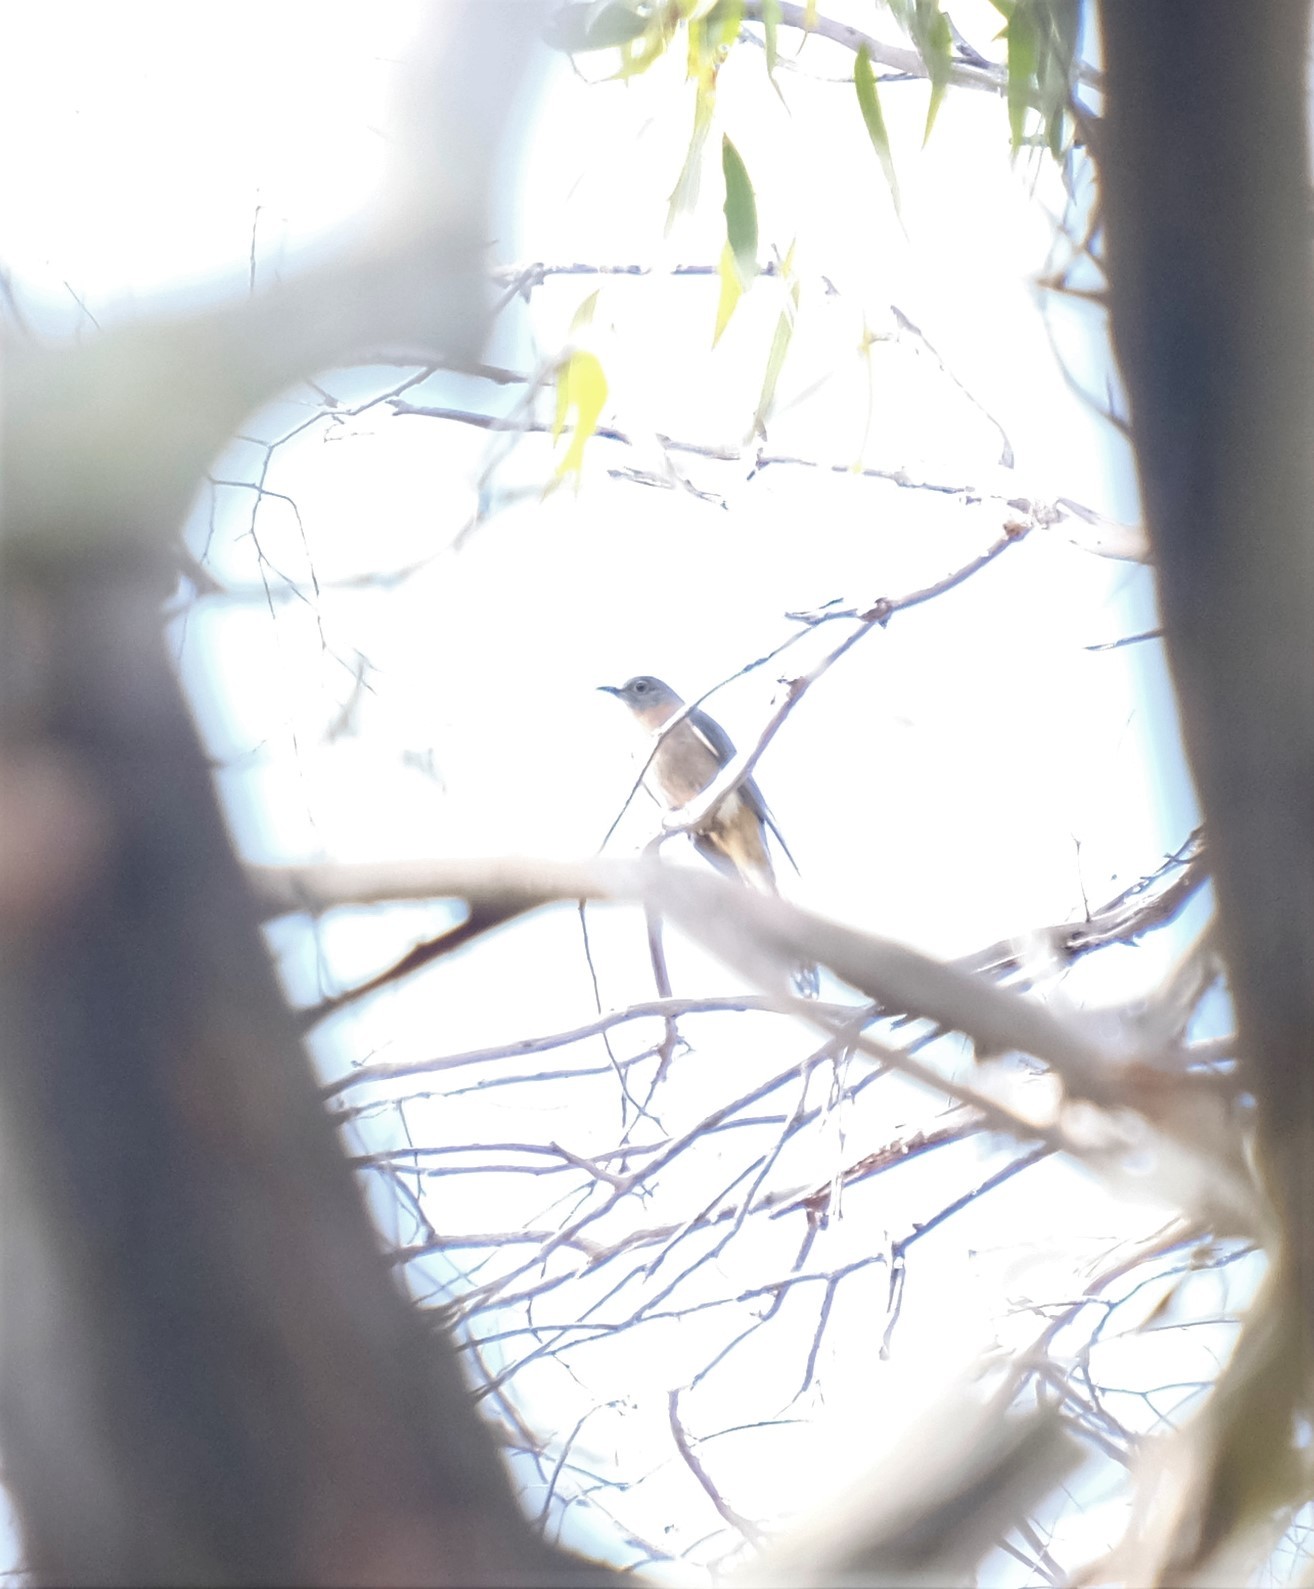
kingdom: Animalia
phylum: Chordata
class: Aves
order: Cuculiformes
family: Cuculidae
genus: Cacomantis
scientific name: Cacomantis flabelliformis
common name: Fan-tailed cuckoo
